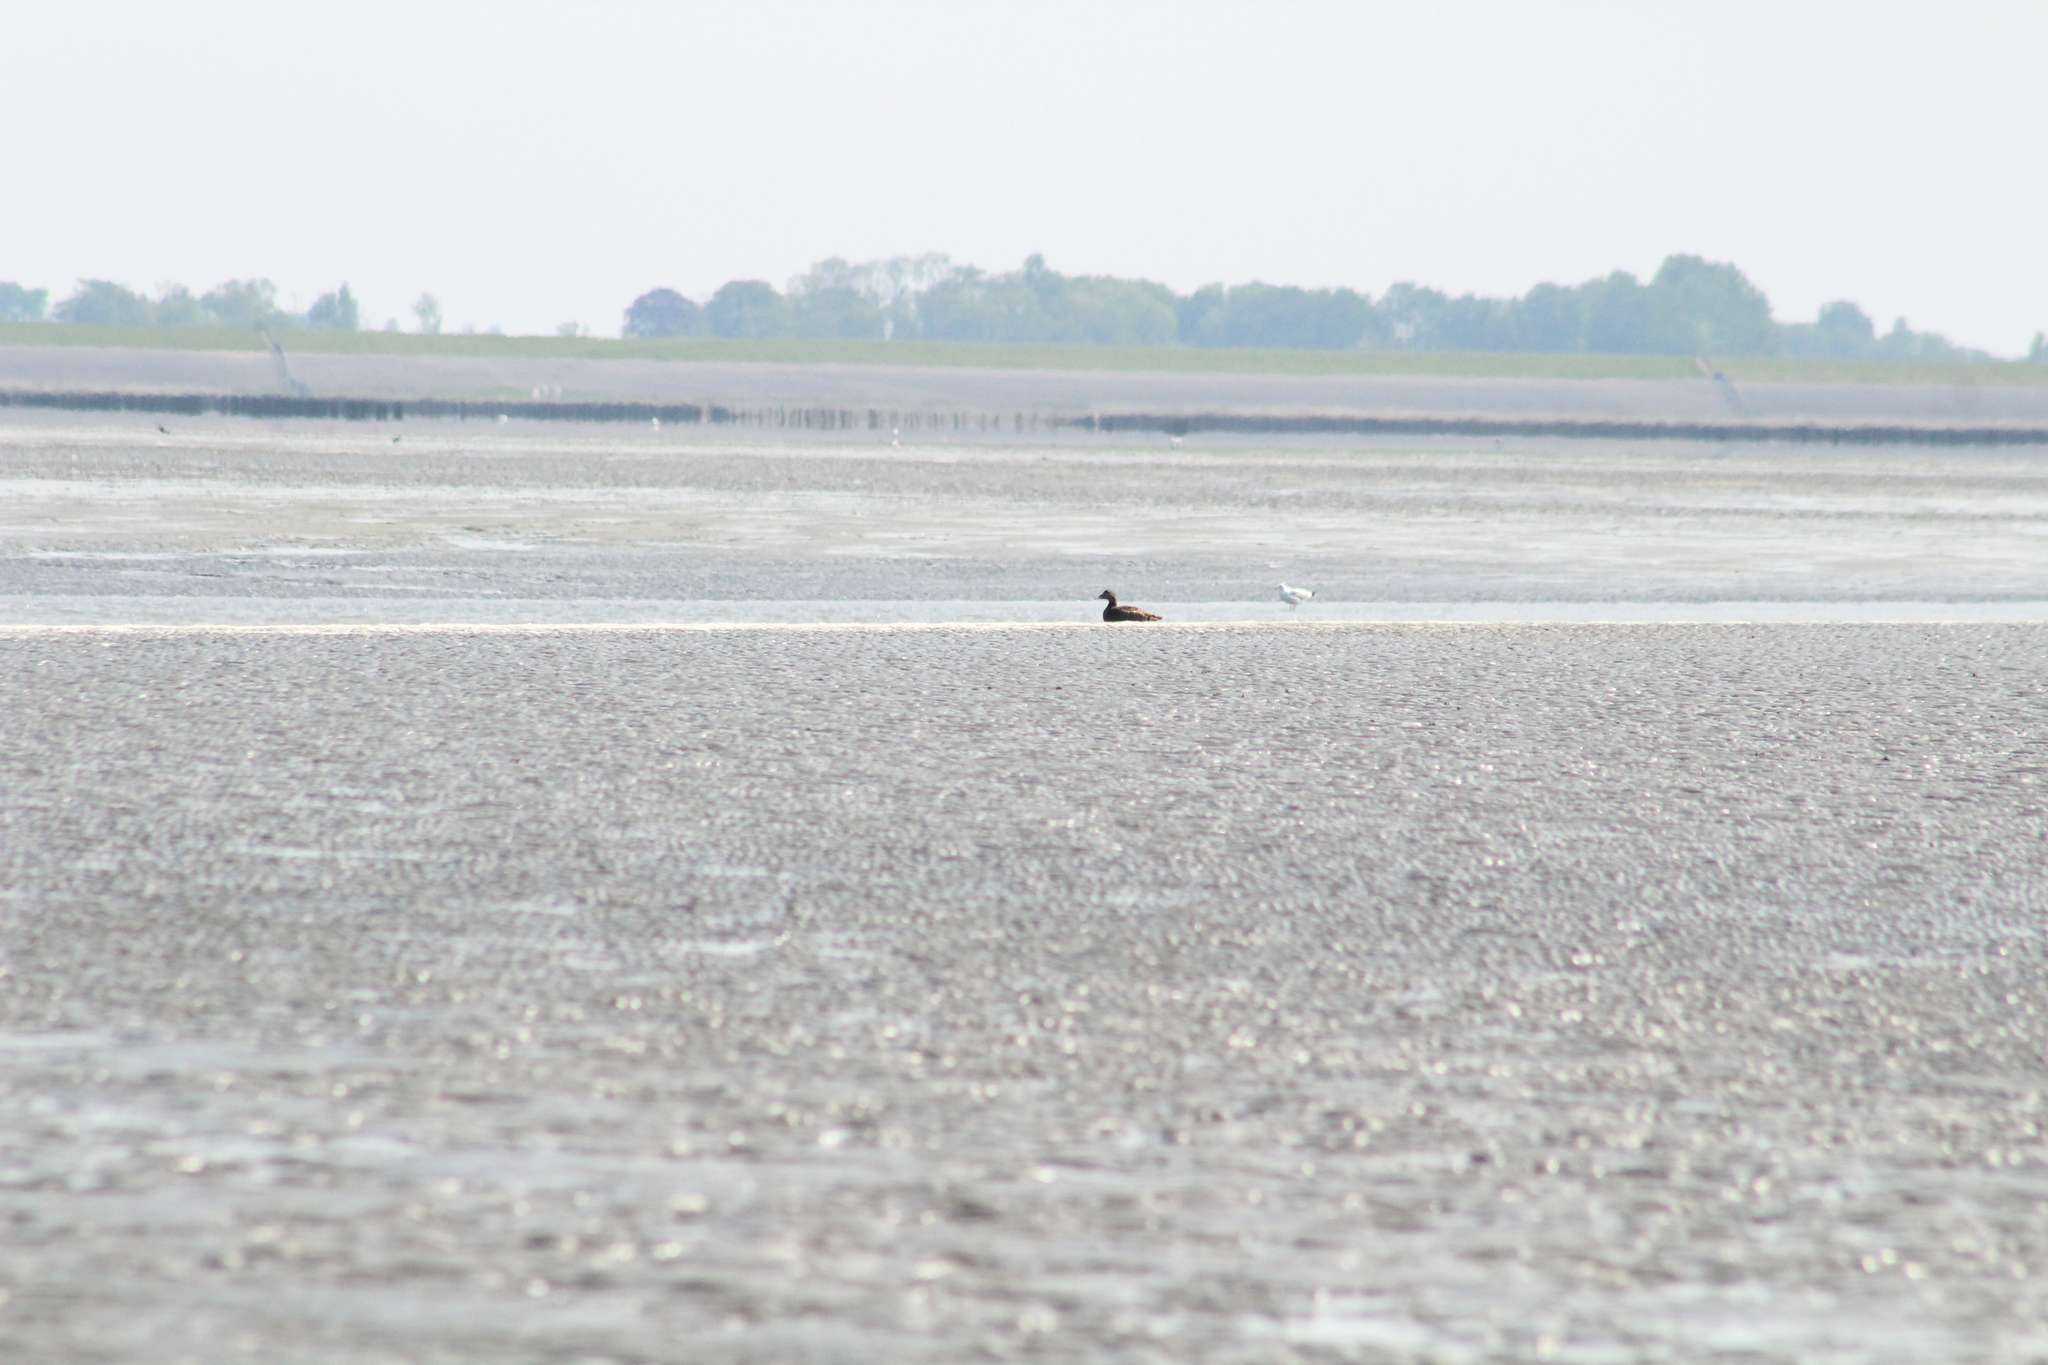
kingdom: Animalia
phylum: Chordata
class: Aves
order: Anseriformes
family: Anatidae
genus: Somateria
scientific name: Somateria mollissima
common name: Common eider
